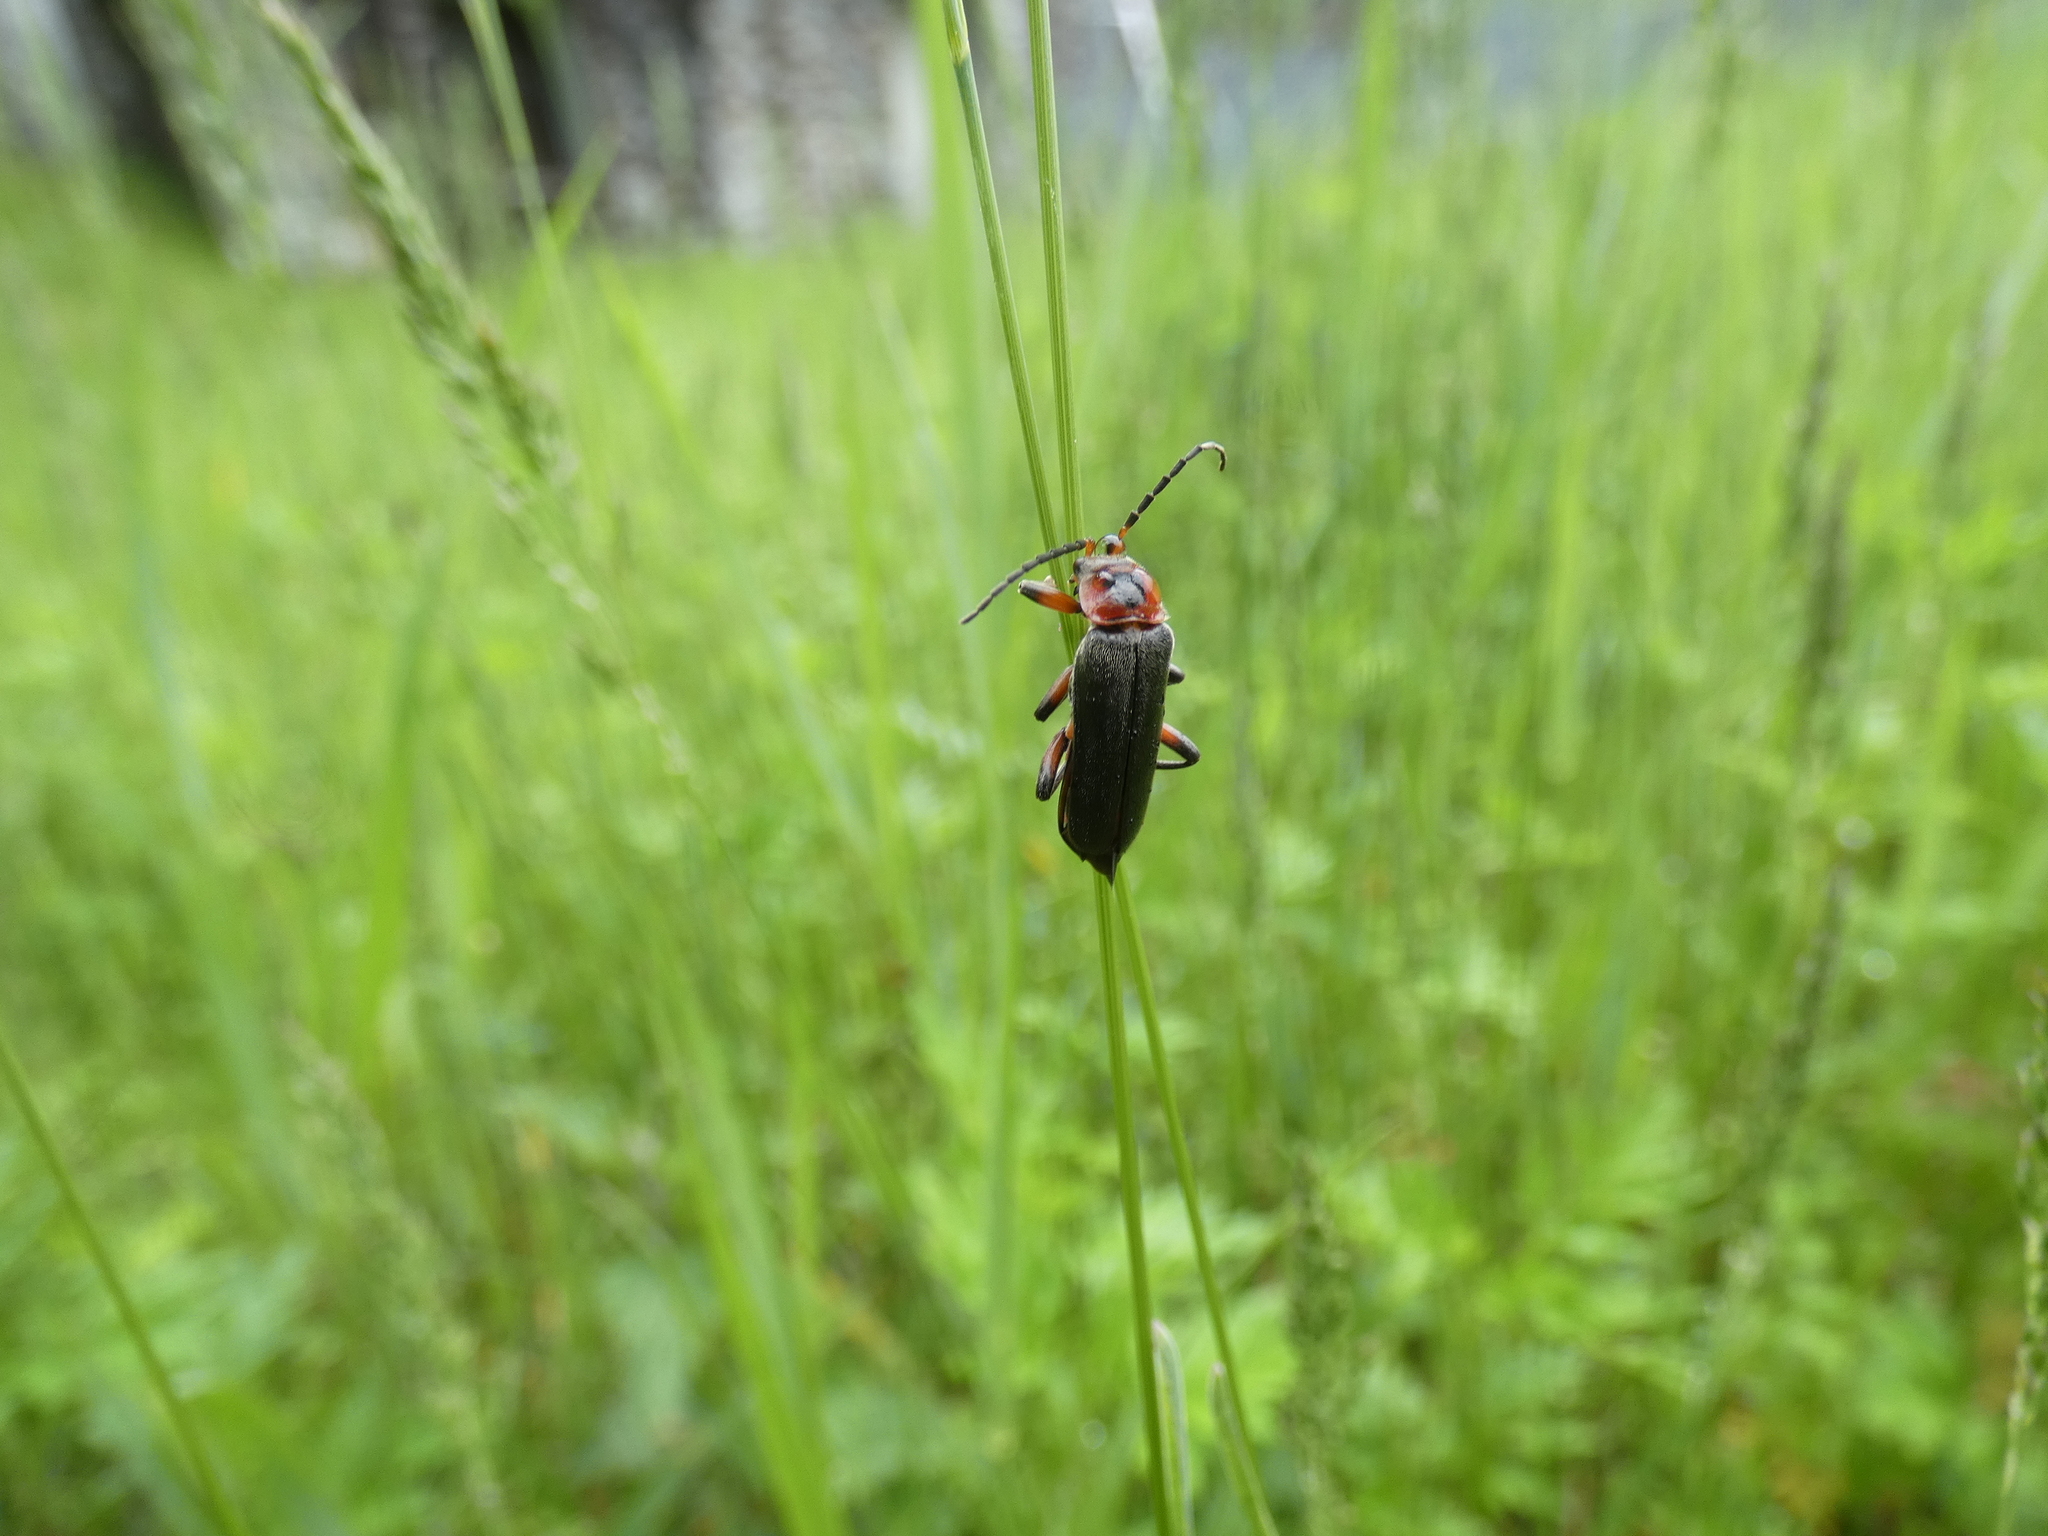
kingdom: Animalia
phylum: Arthropoda
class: Insecta
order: Coleoptera
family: Cantharidae
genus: Cantharis
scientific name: Cantharis rustica
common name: Soldier beetle
